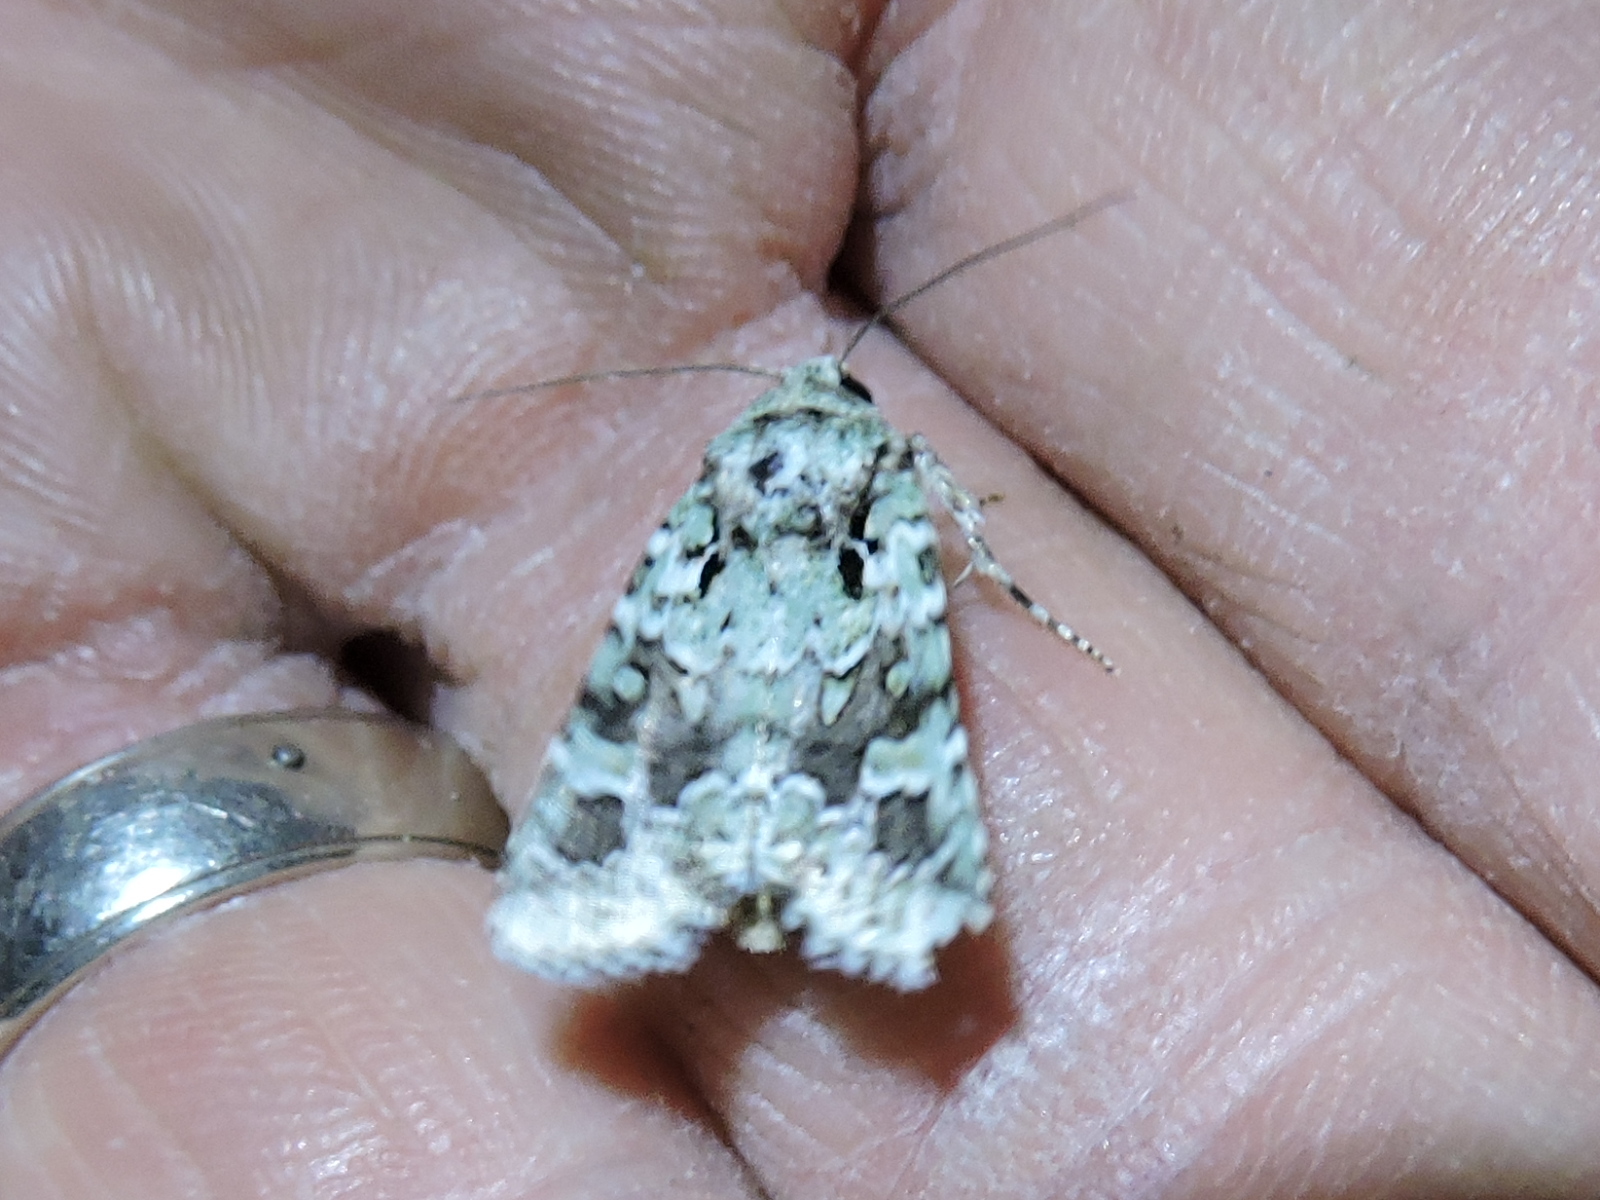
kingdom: Animalia
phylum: Arthropoda
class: Insecta
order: Lepidoptera
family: Noctuidae
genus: Lacinipolia
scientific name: Lacinipolia laudabilis
